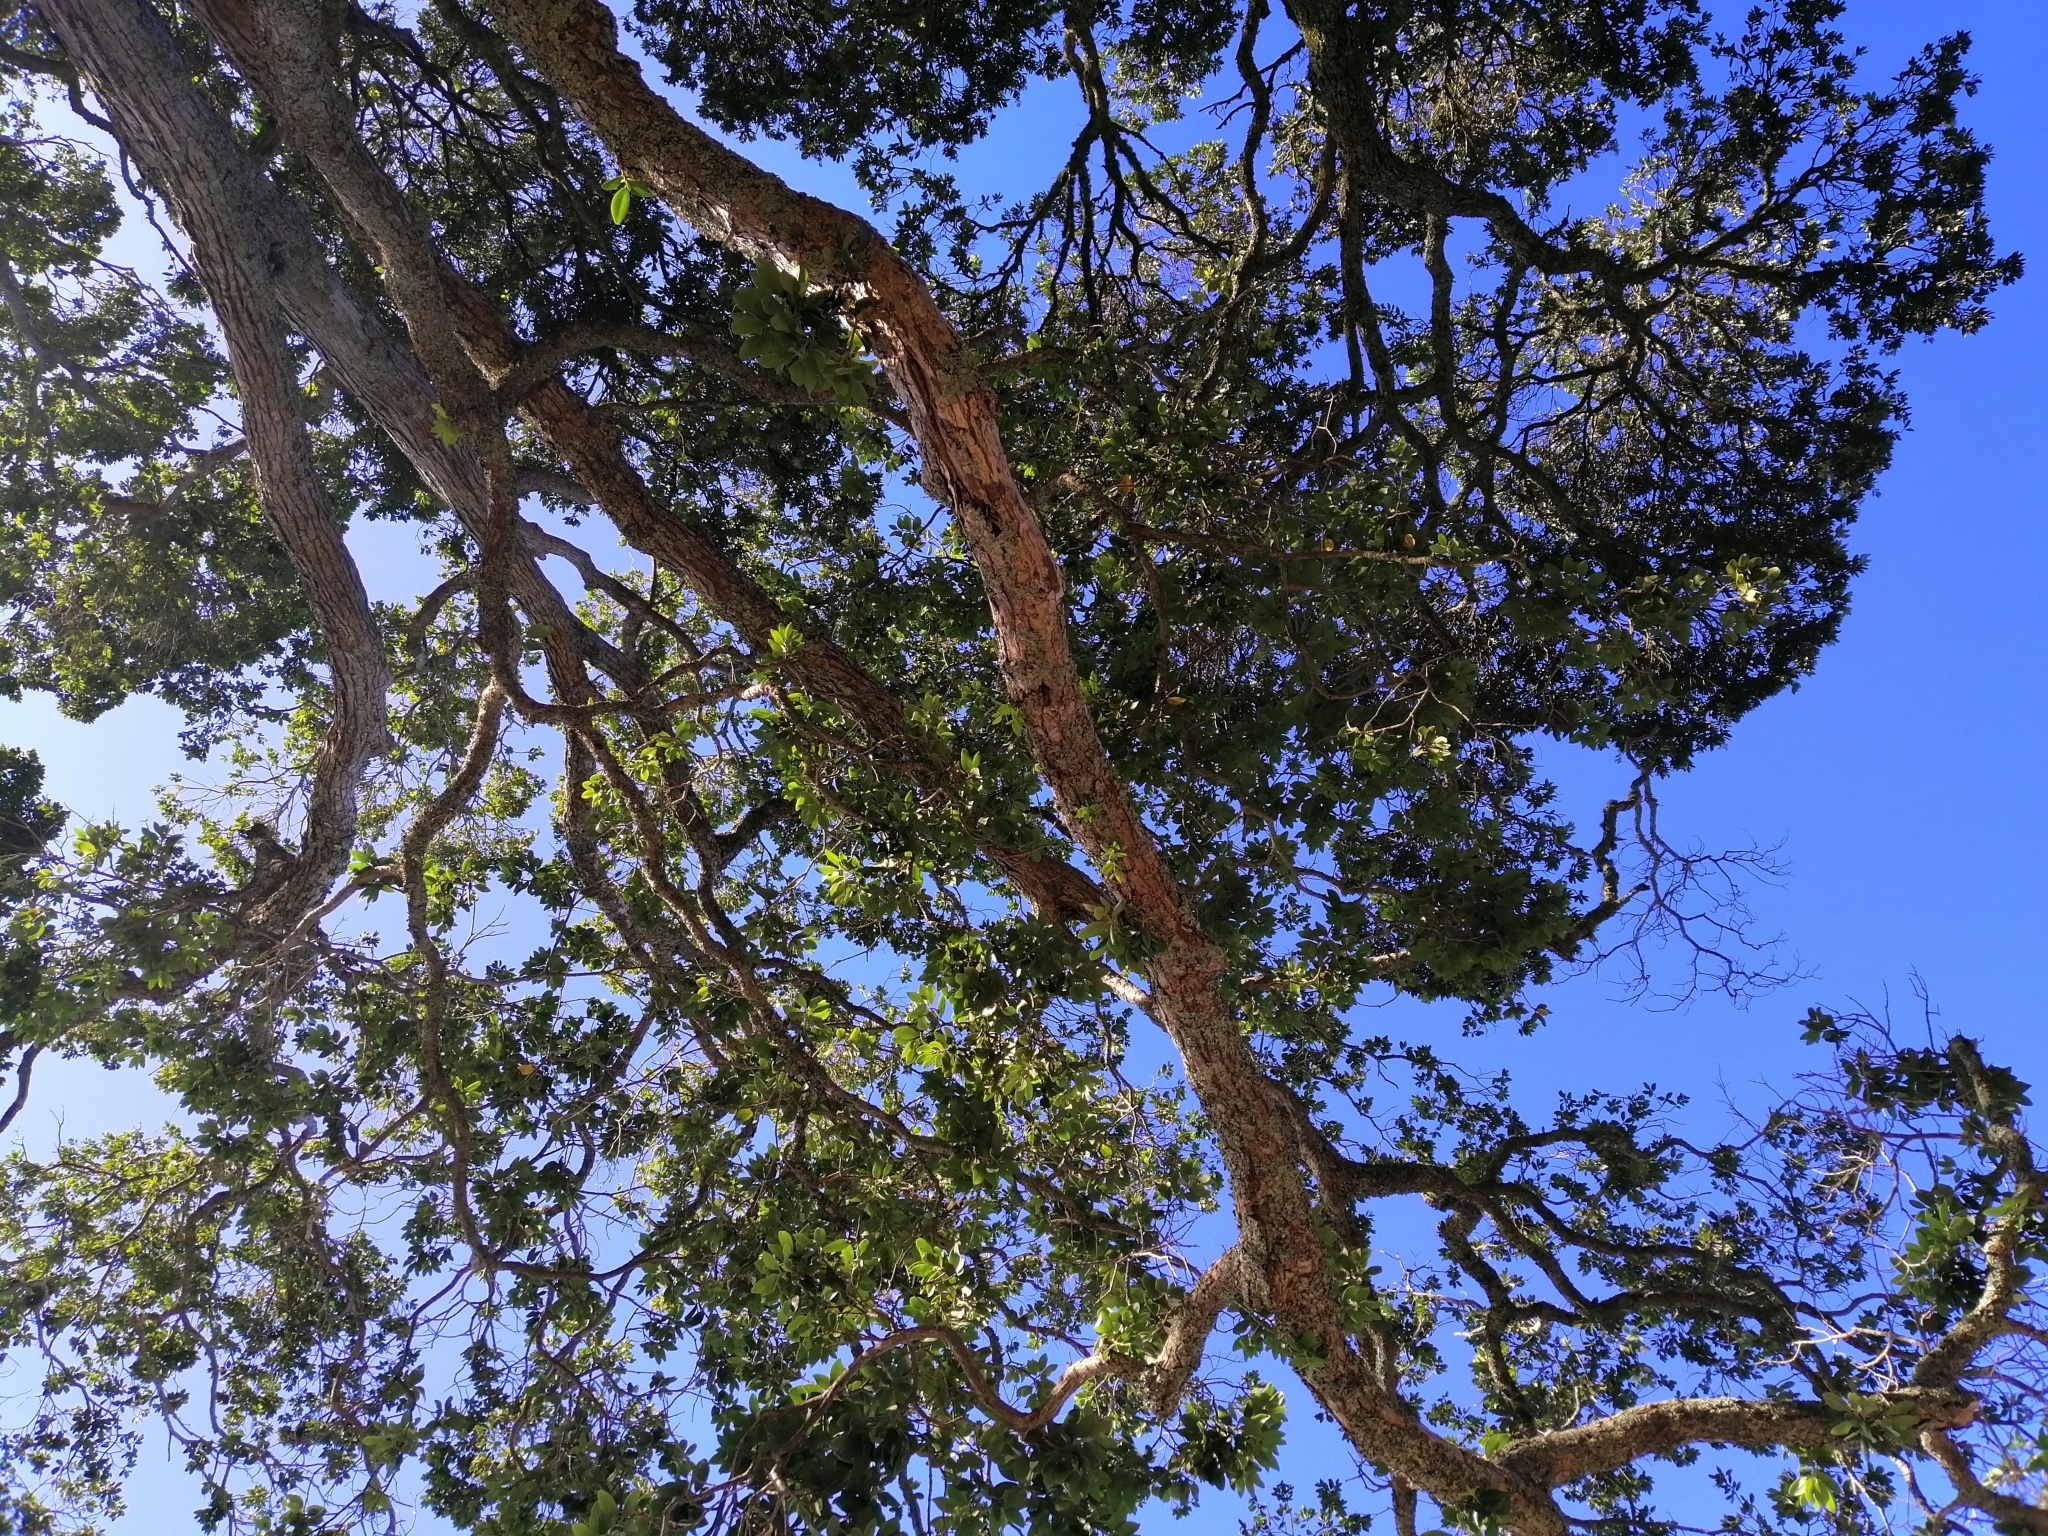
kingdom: Plantae
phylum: Tracheophyta
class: Magnoliopsida
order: Myrtales
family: Myrtaceae
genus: Metrosideros
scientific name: Metrosideros excelsa
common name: New zealand christmastree
